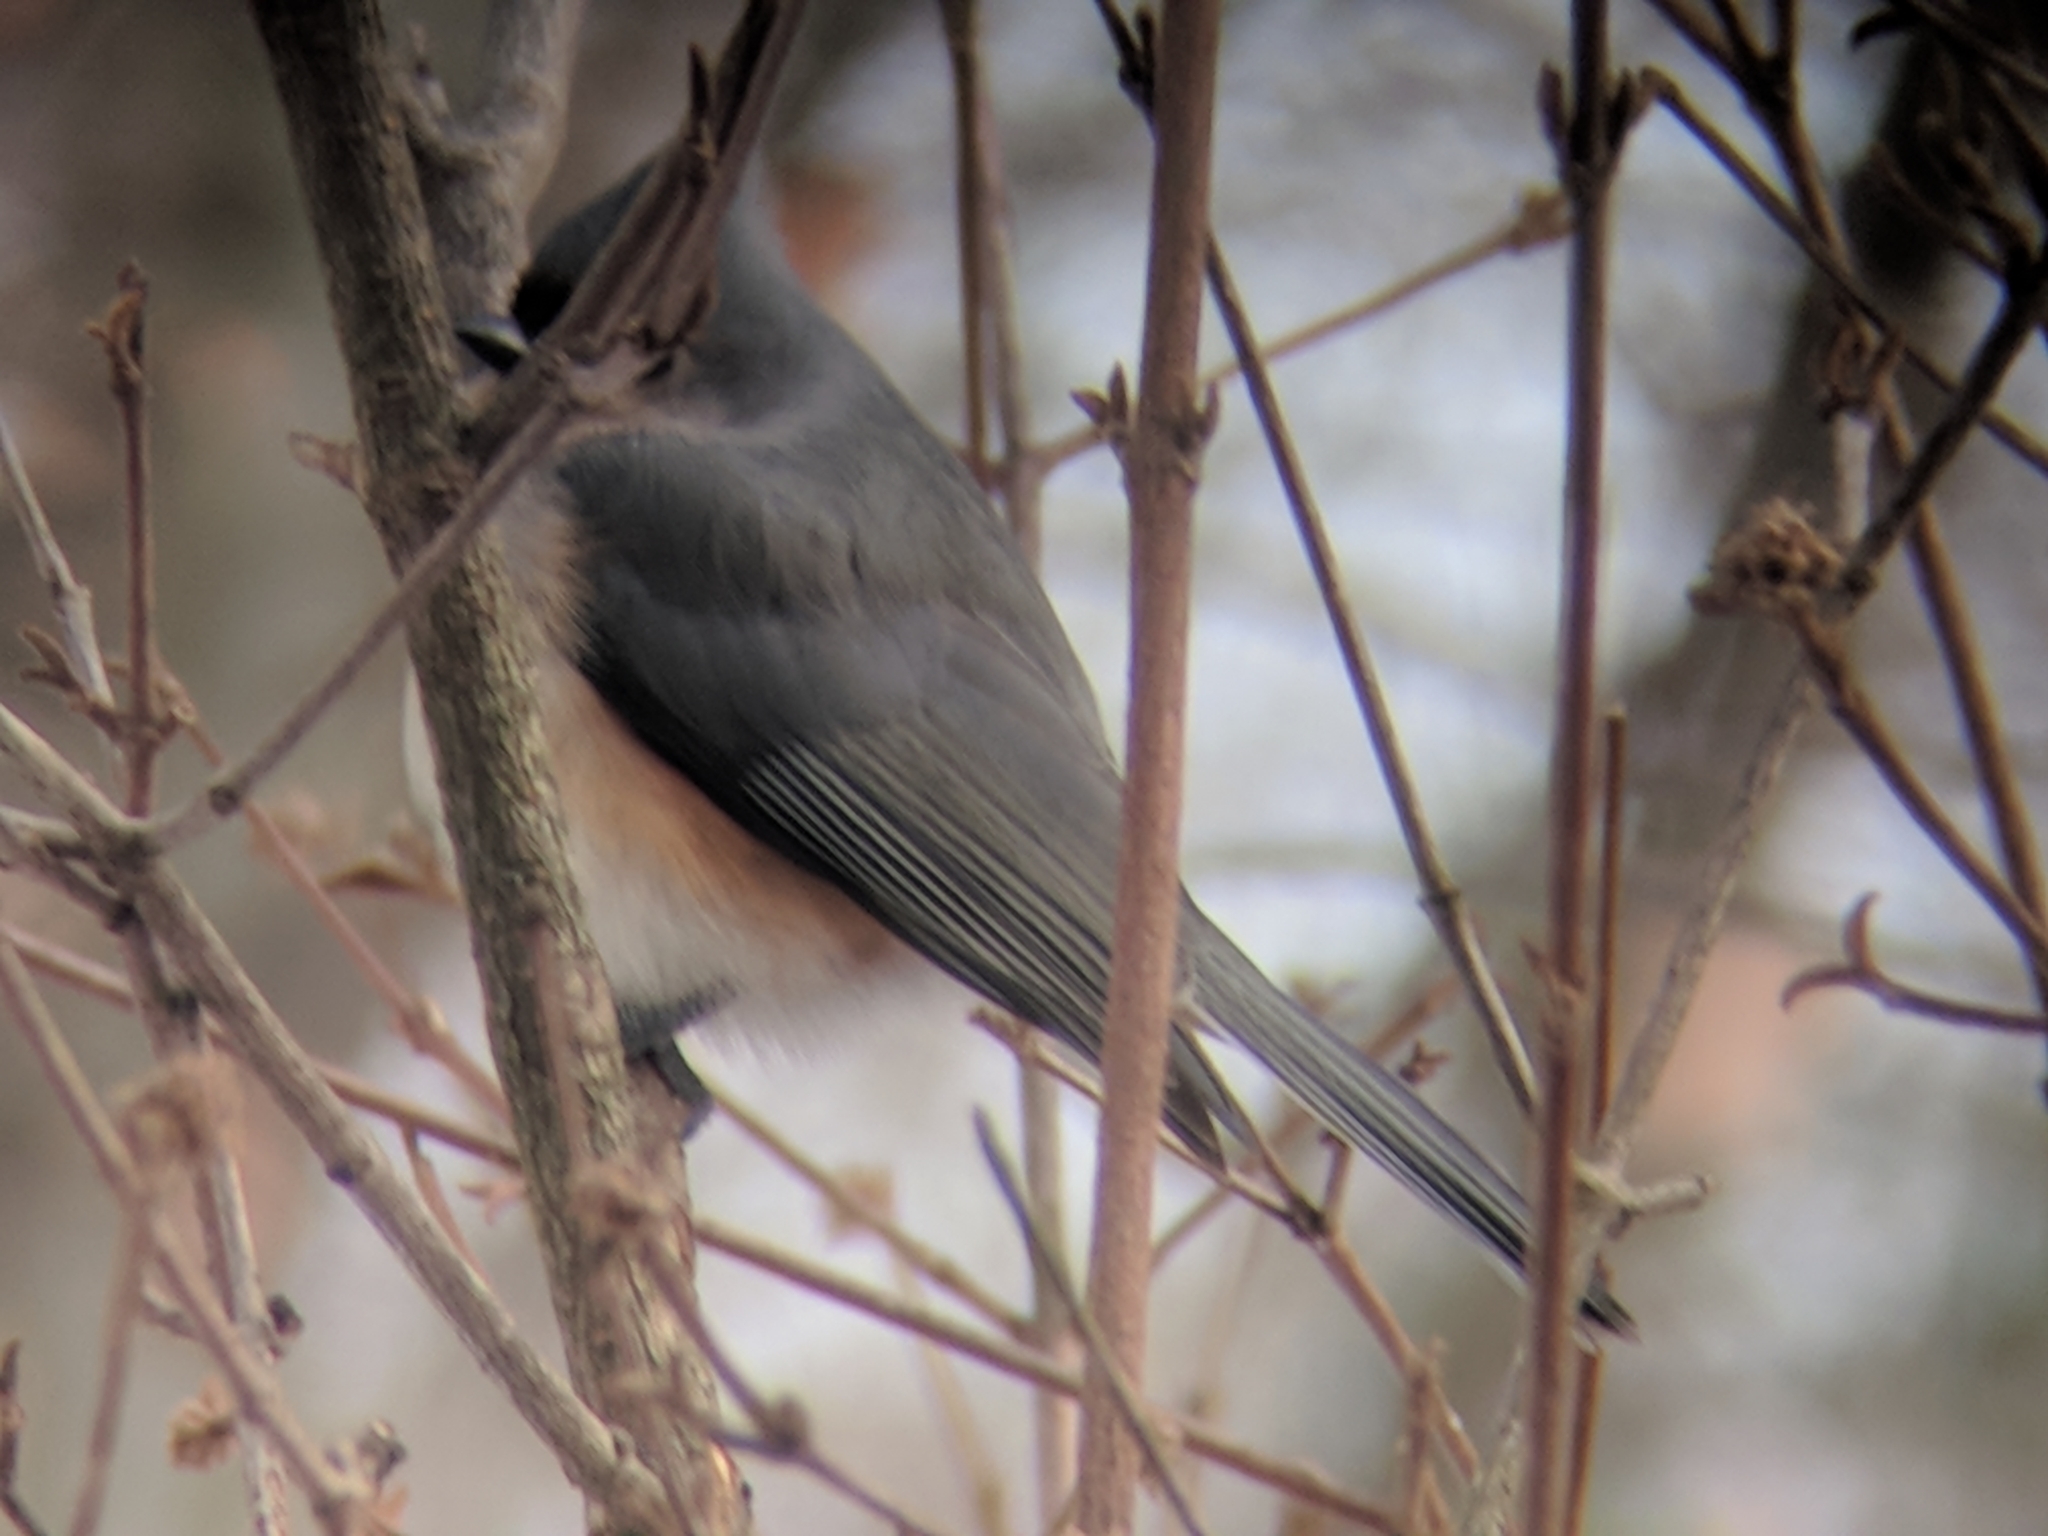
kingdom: Animalia
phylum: Chordata
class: Aves
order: Passeriformes
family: Paridae
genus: Baeolophus
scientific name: Baeolophus bicolor
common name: Tufted titmouse
